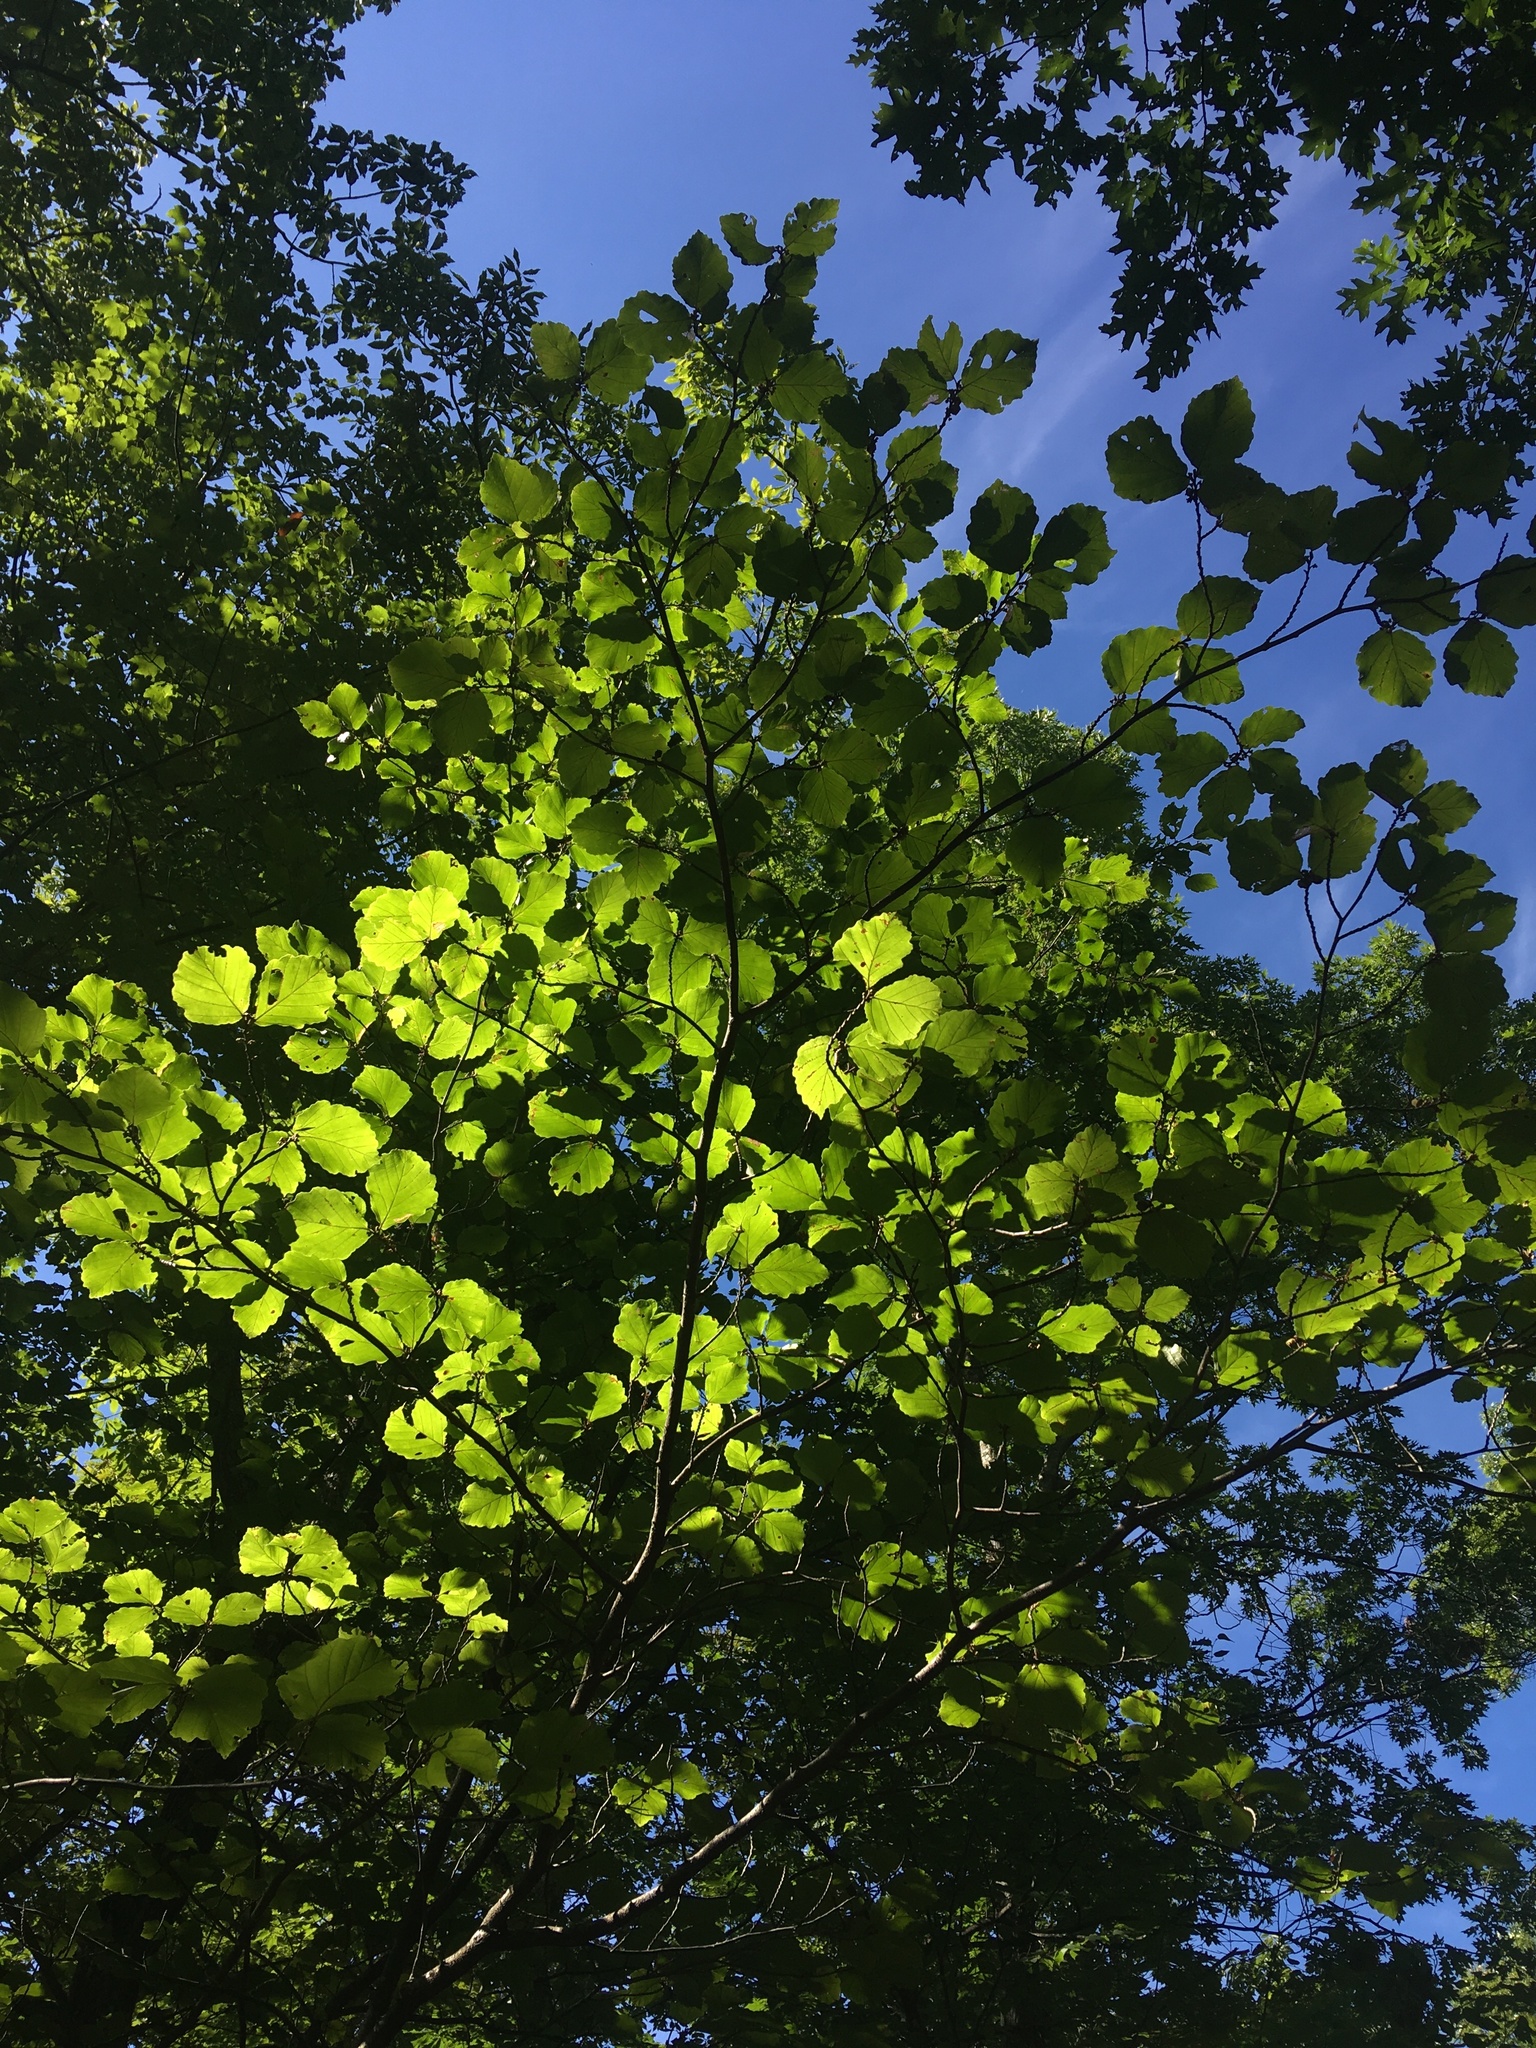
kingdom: Plantae
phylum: Tracheophyta
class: Magnoliopsida
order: Saxifragales
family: Hamamelidaceae
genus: Hamamelis
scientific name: Hamamelis virginiana
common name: Witch-hazel
